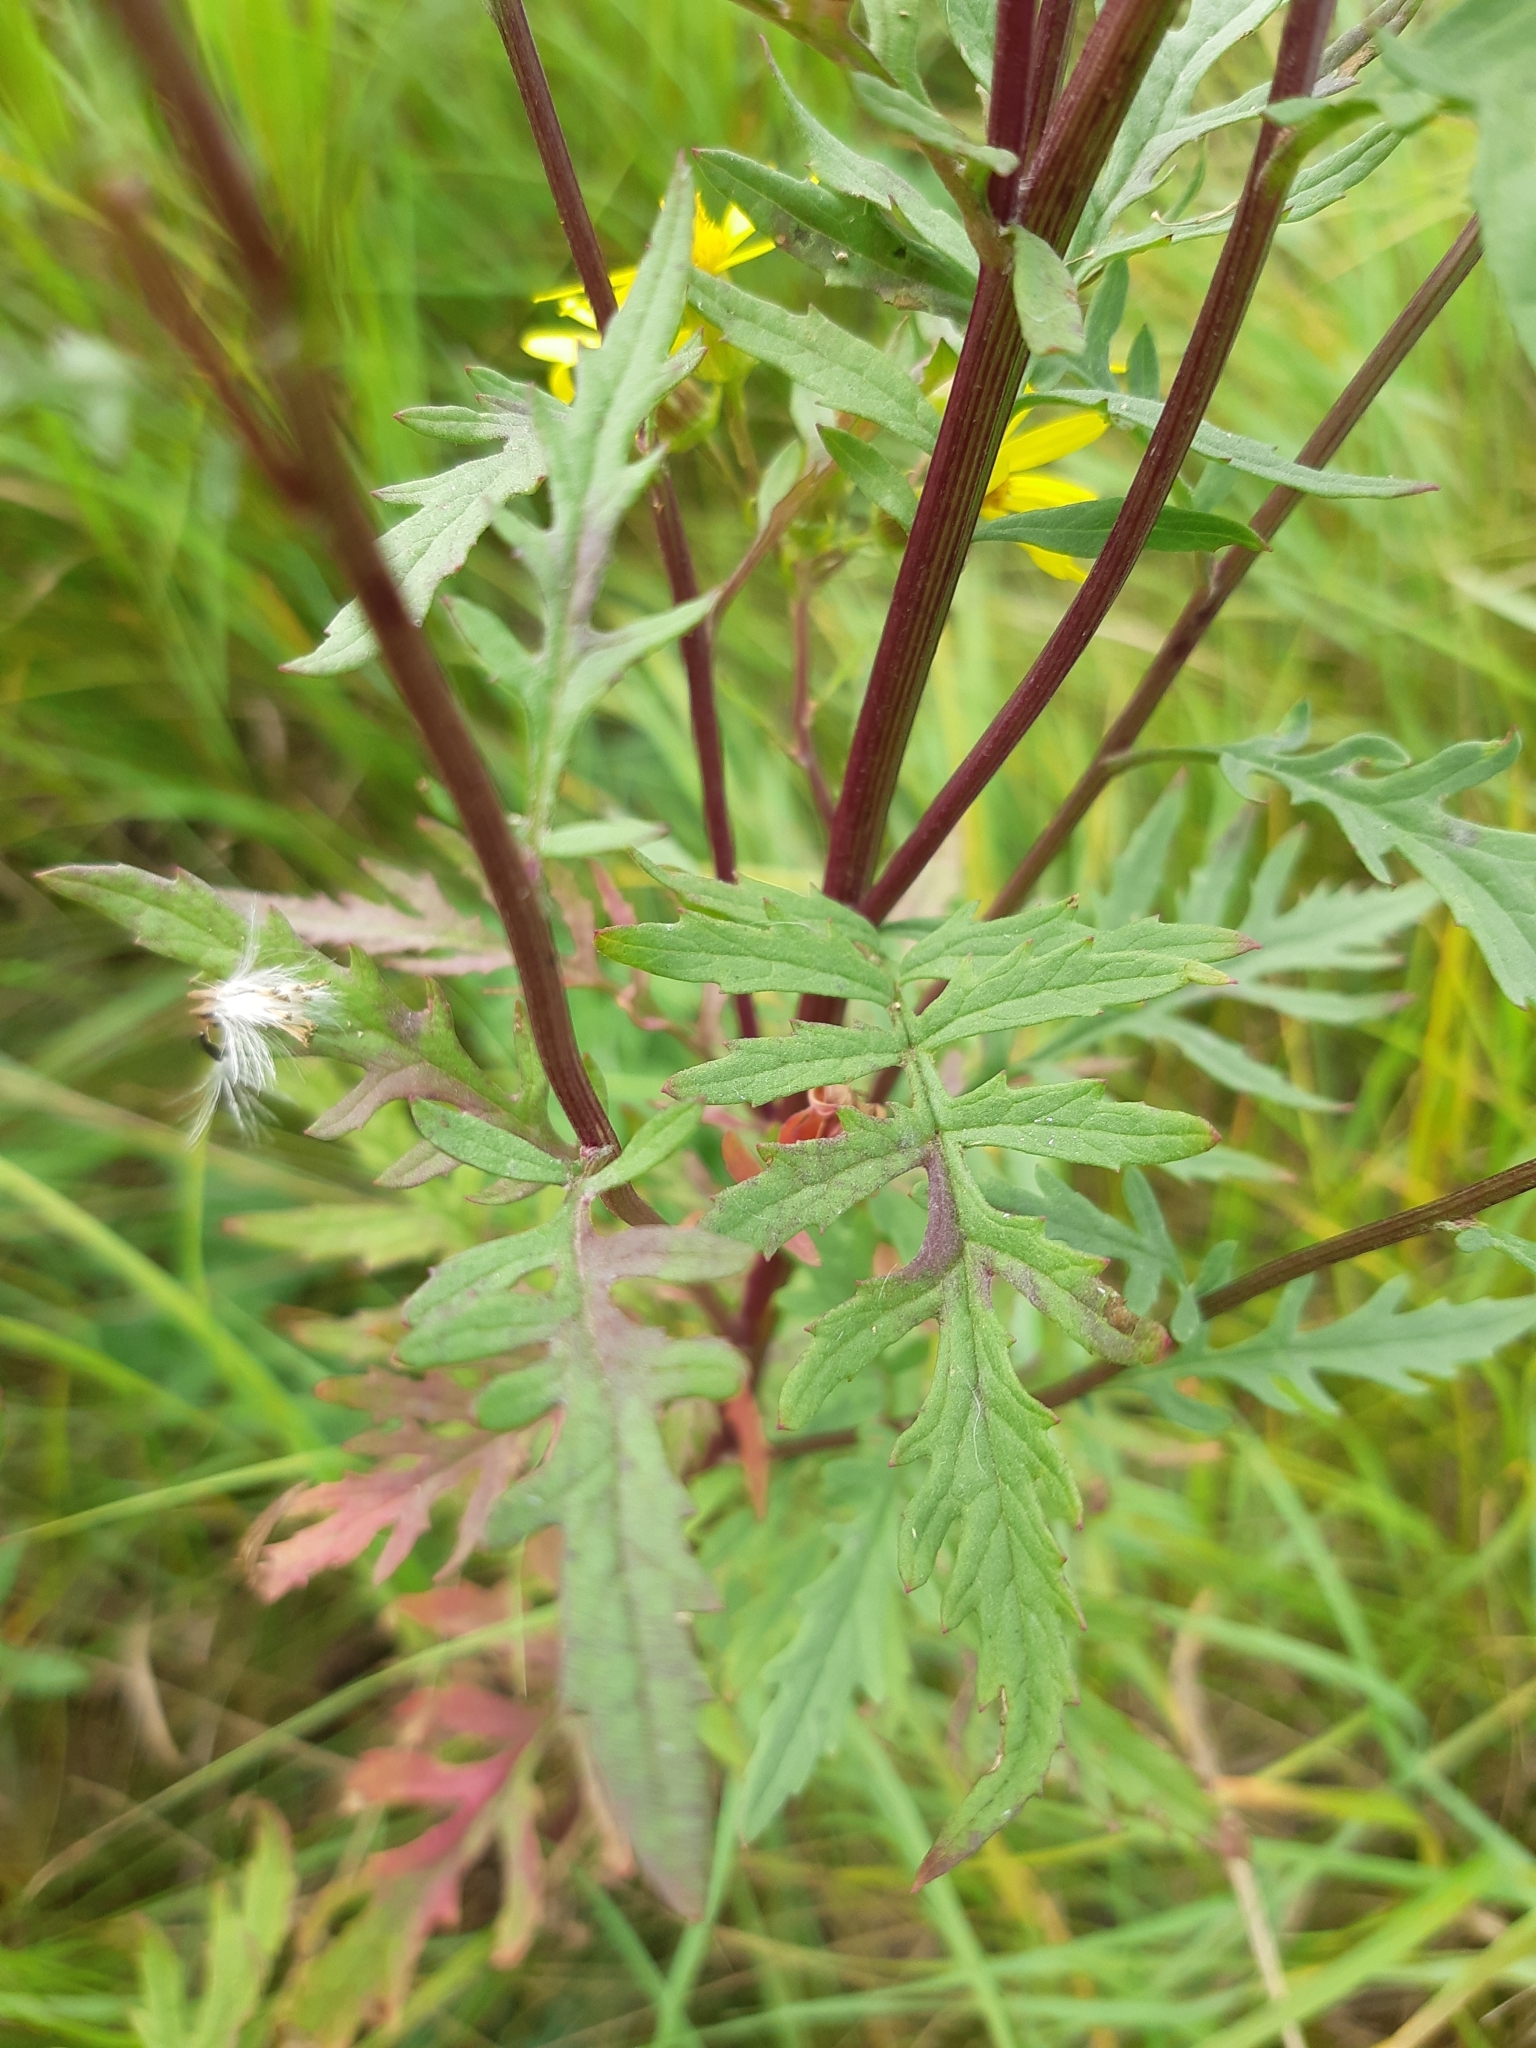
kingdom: Plantae
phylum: Tracheophyta
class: Magnoliopsida
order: Asterales
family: Asteraceae
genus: Senecio
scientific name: Senecio eremophilus
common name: Desert ragwort
